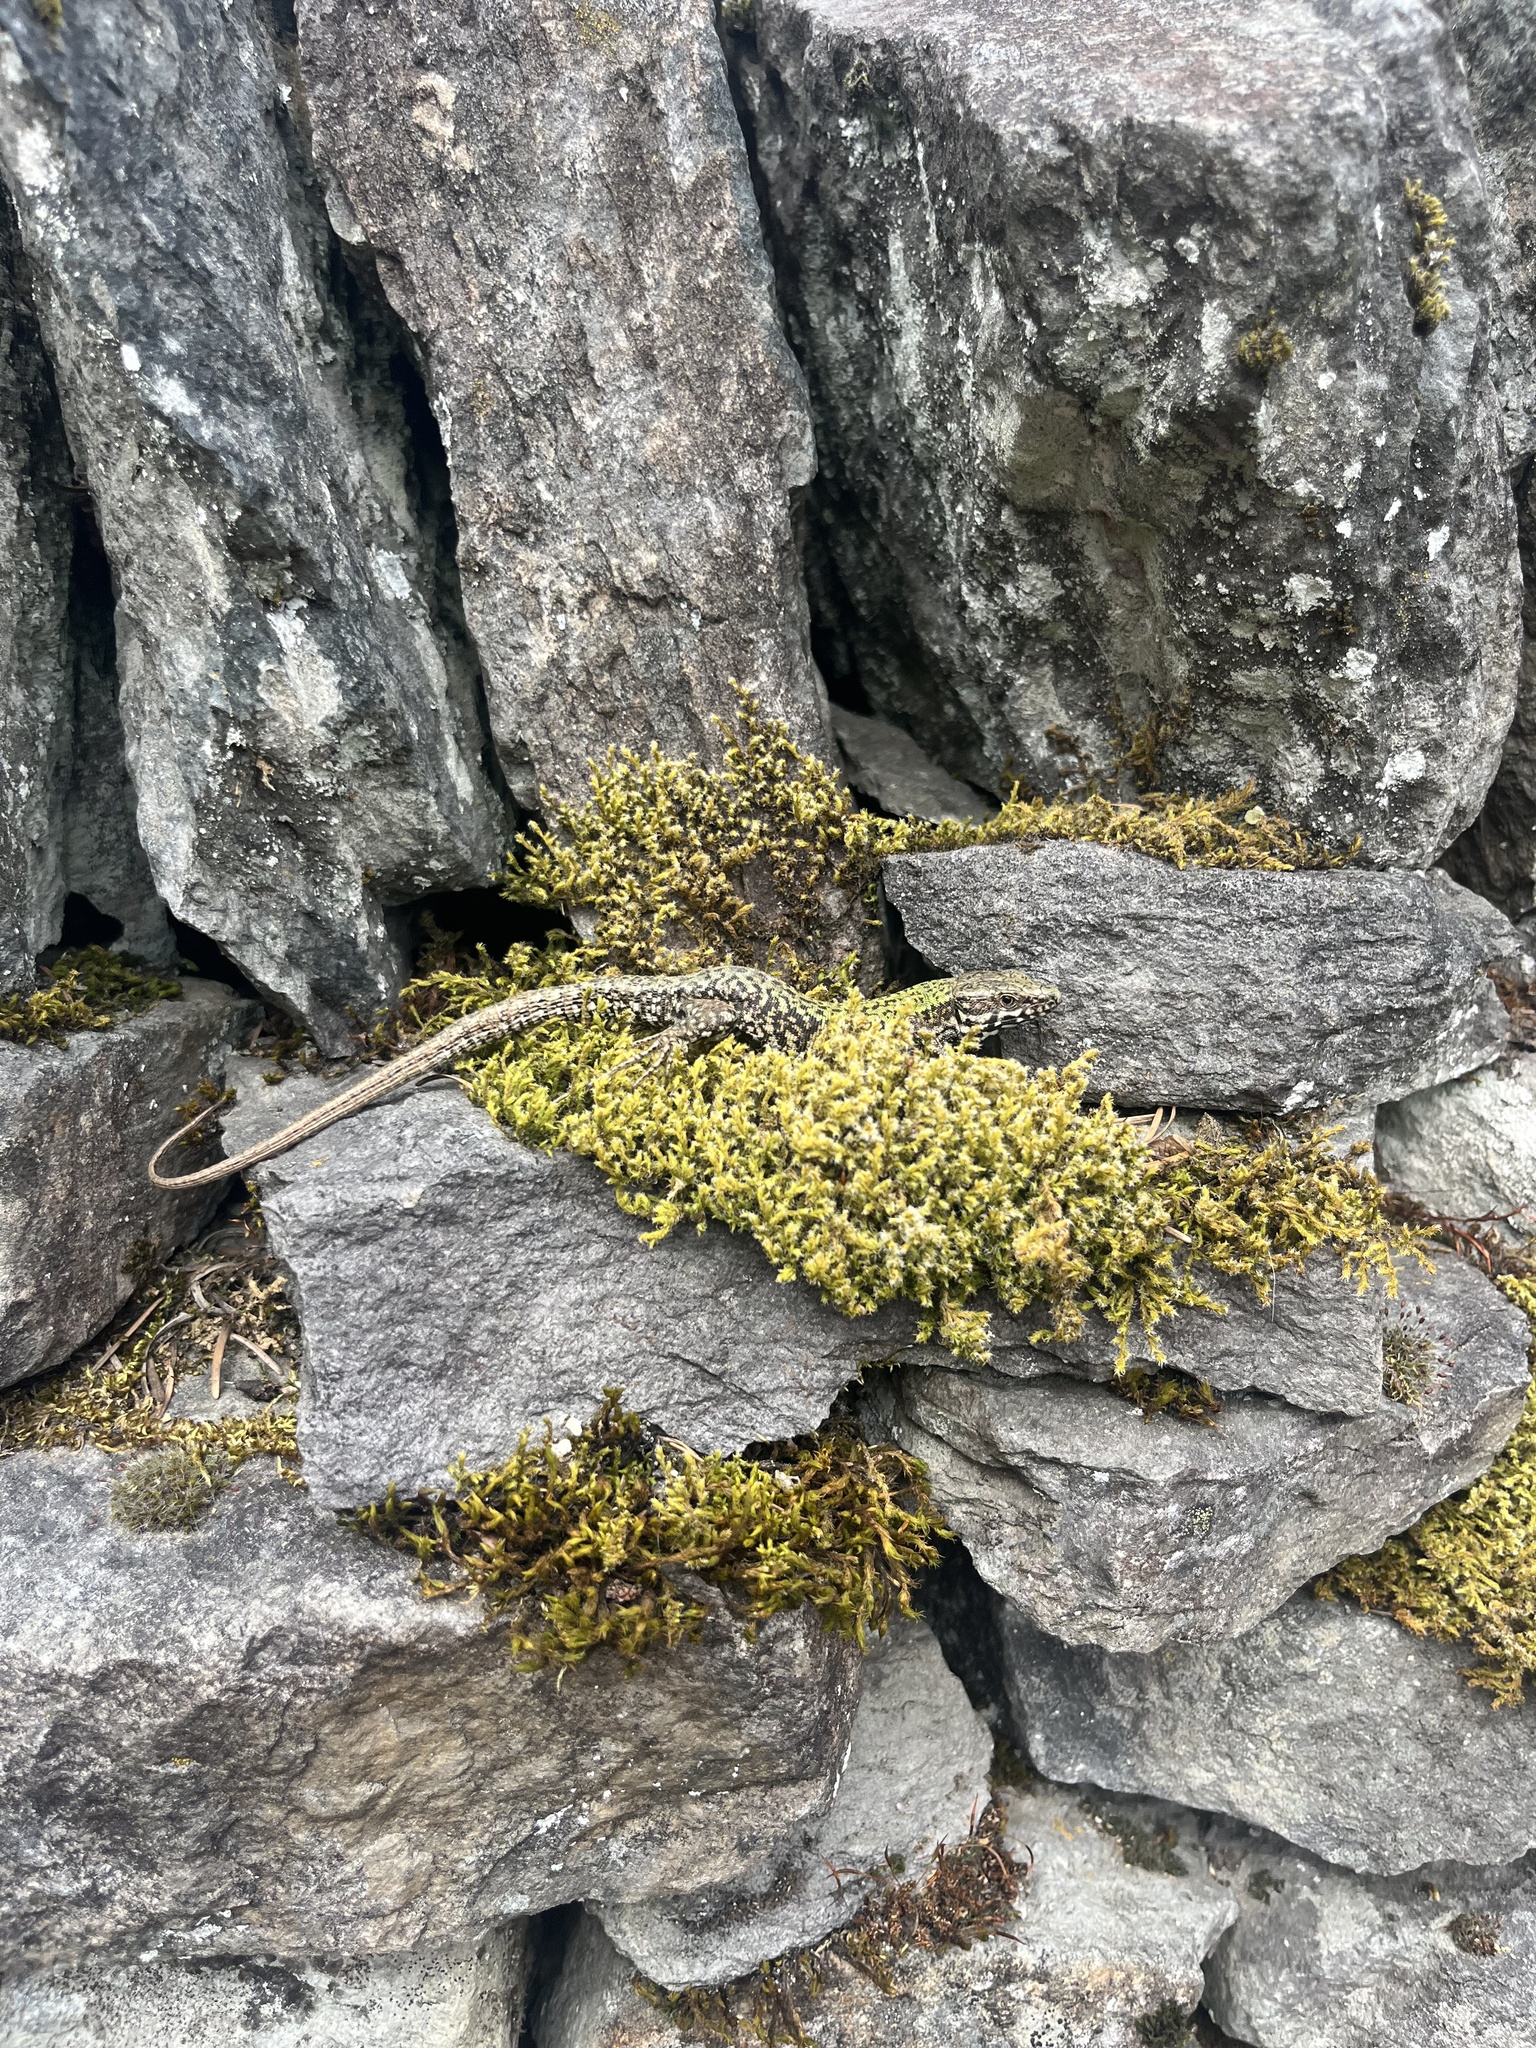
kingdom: Animalia
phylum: Chordata
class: Squamata
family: Lacertidae
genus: Podarcis
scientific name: Podarcis muralis
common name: Common wall lizard
